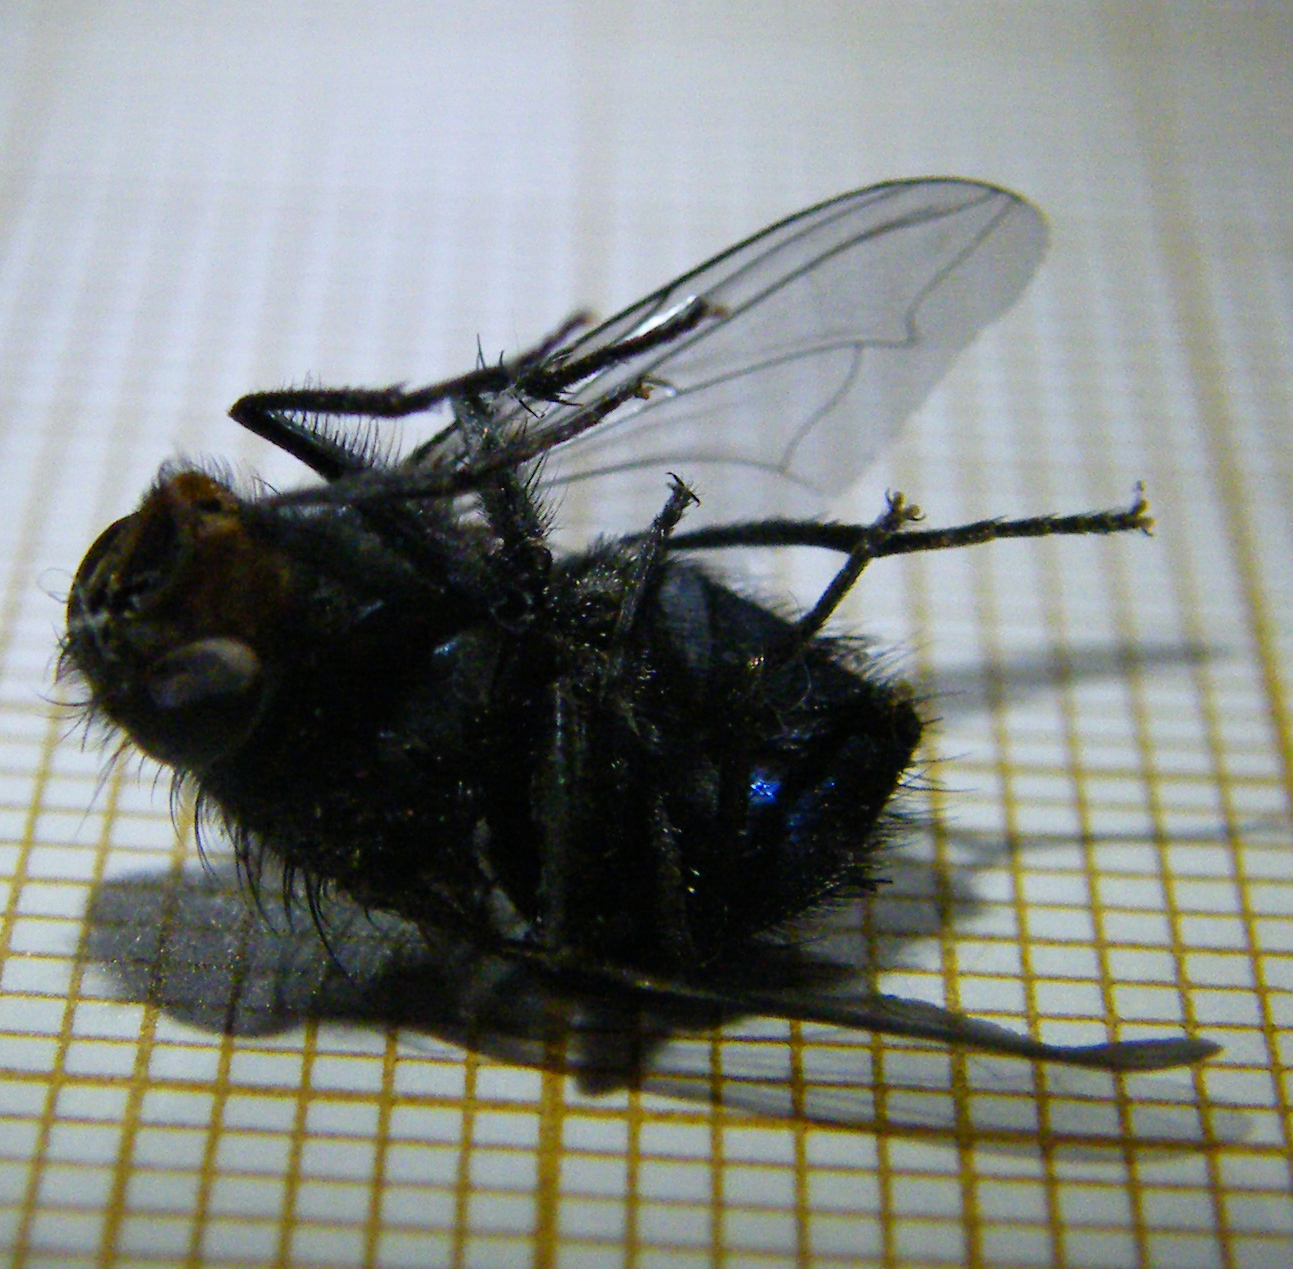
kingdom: Animalia
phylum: Arthropoda
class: Insecta
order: Diptera
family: Calliphoridae
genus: Calliphora
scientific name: Calliphora vicina
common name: Common blow flie
